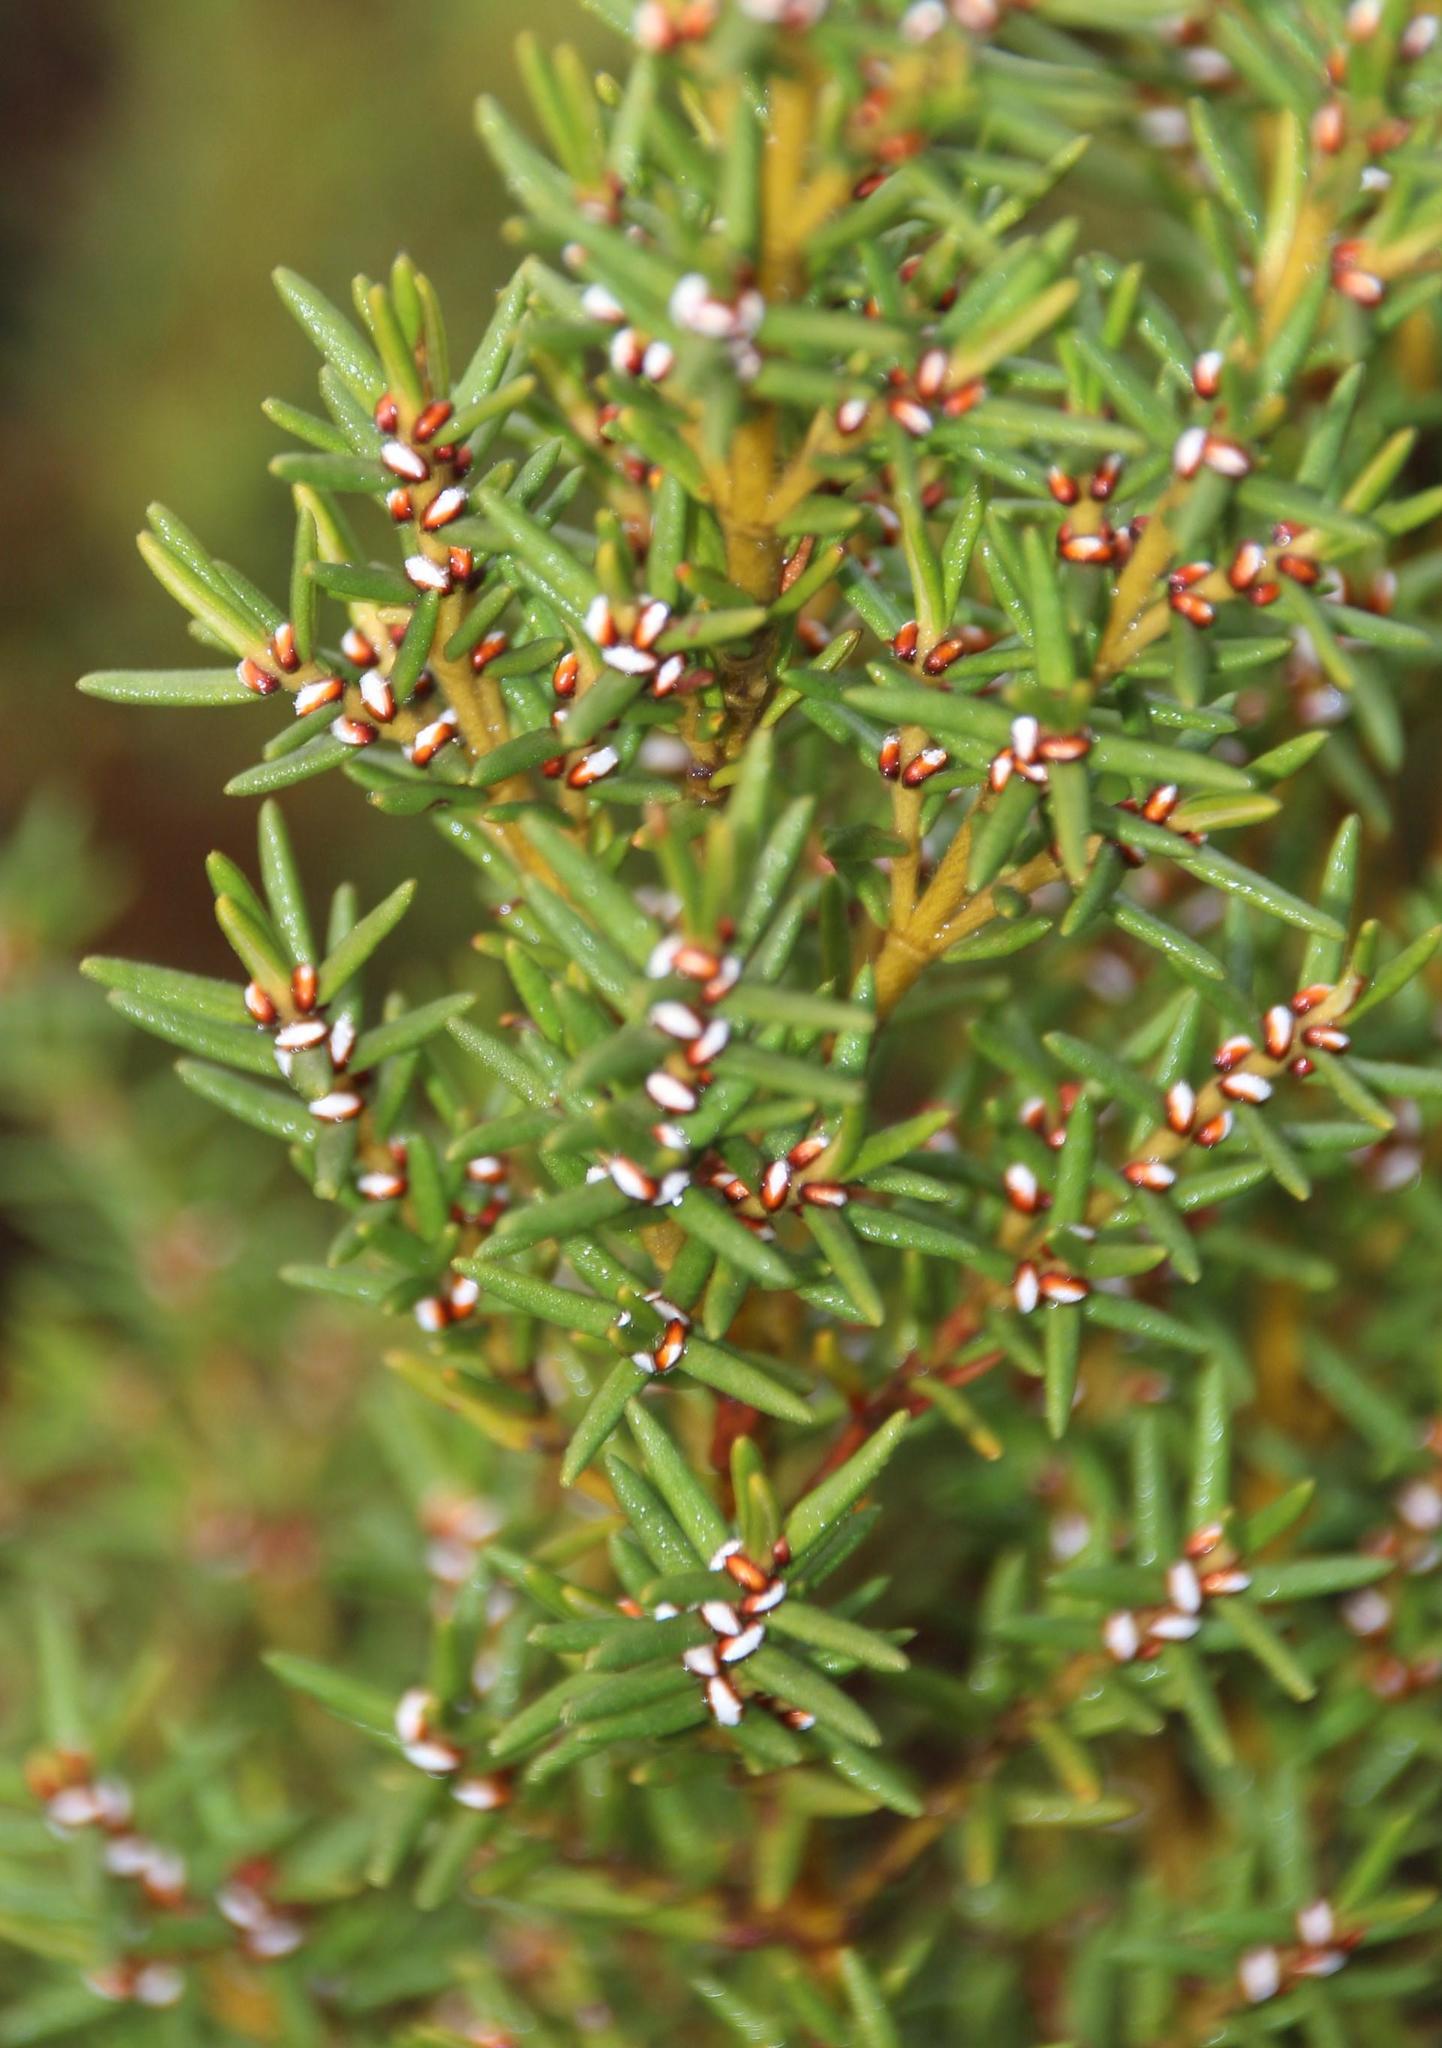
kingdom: Plantae
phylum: Tracheophyta
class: Magnoliopsida
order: Cornales
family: Grubbiaceae
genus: Grubbia
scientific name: Grubbia rosmarinifolia
